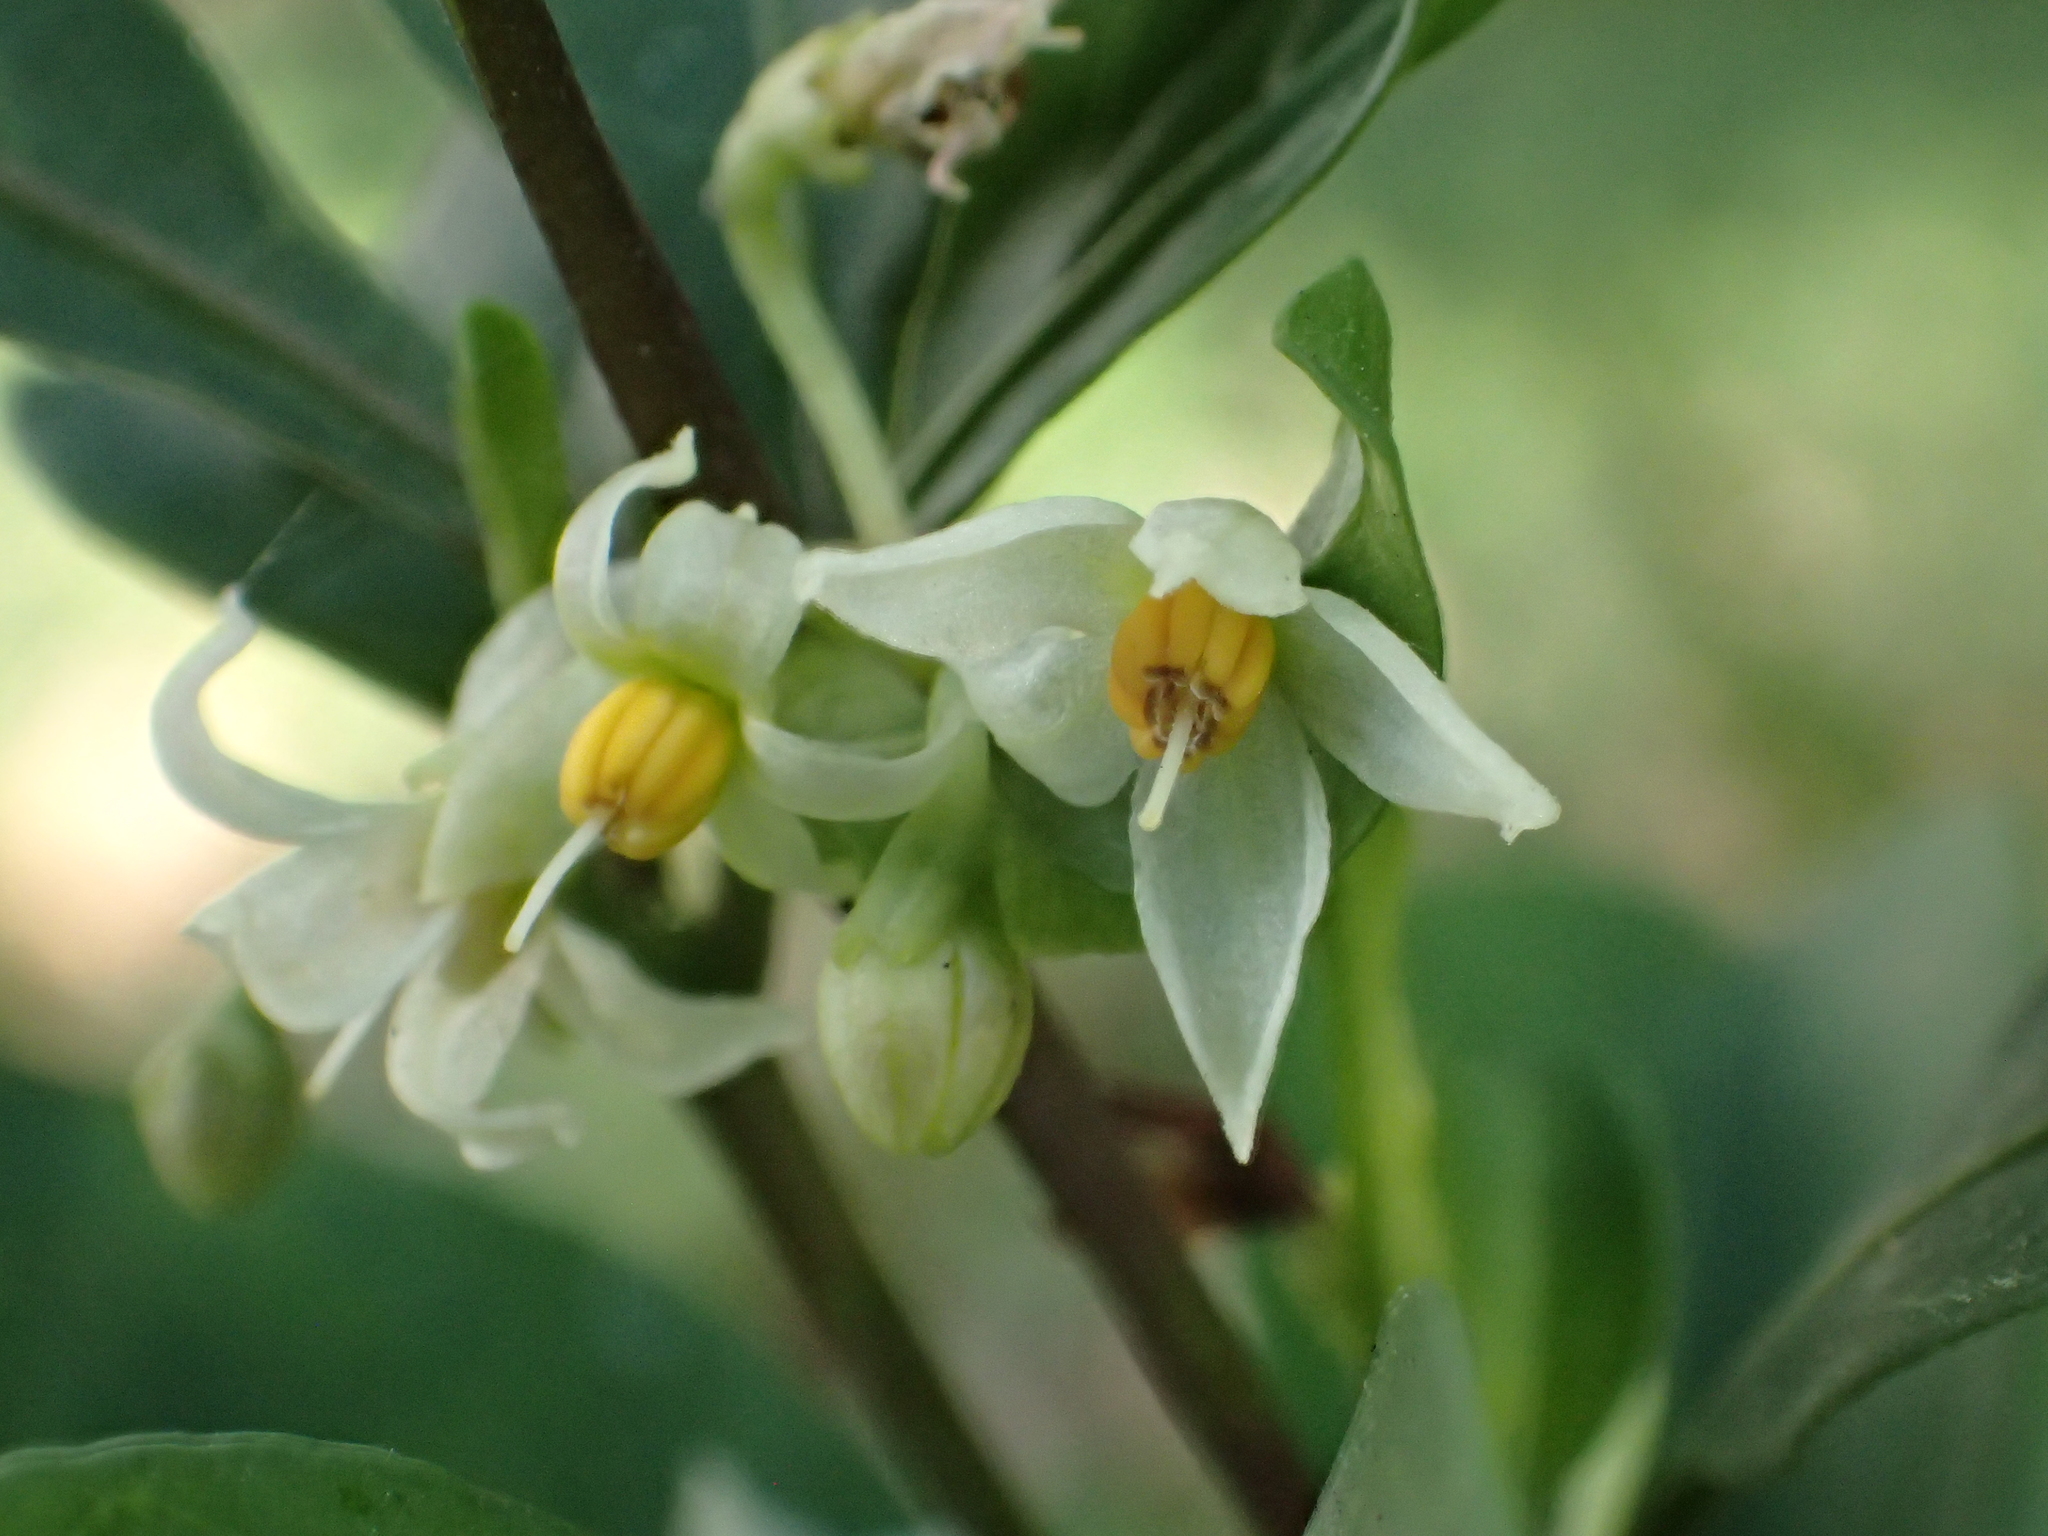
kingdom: Plantae
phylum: Tracheophyta
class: Magnoliopsida
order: Solanales
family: Solanaceae
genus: Solanum
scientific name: Solanum diphyllum
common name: Twoleaf nightshade
